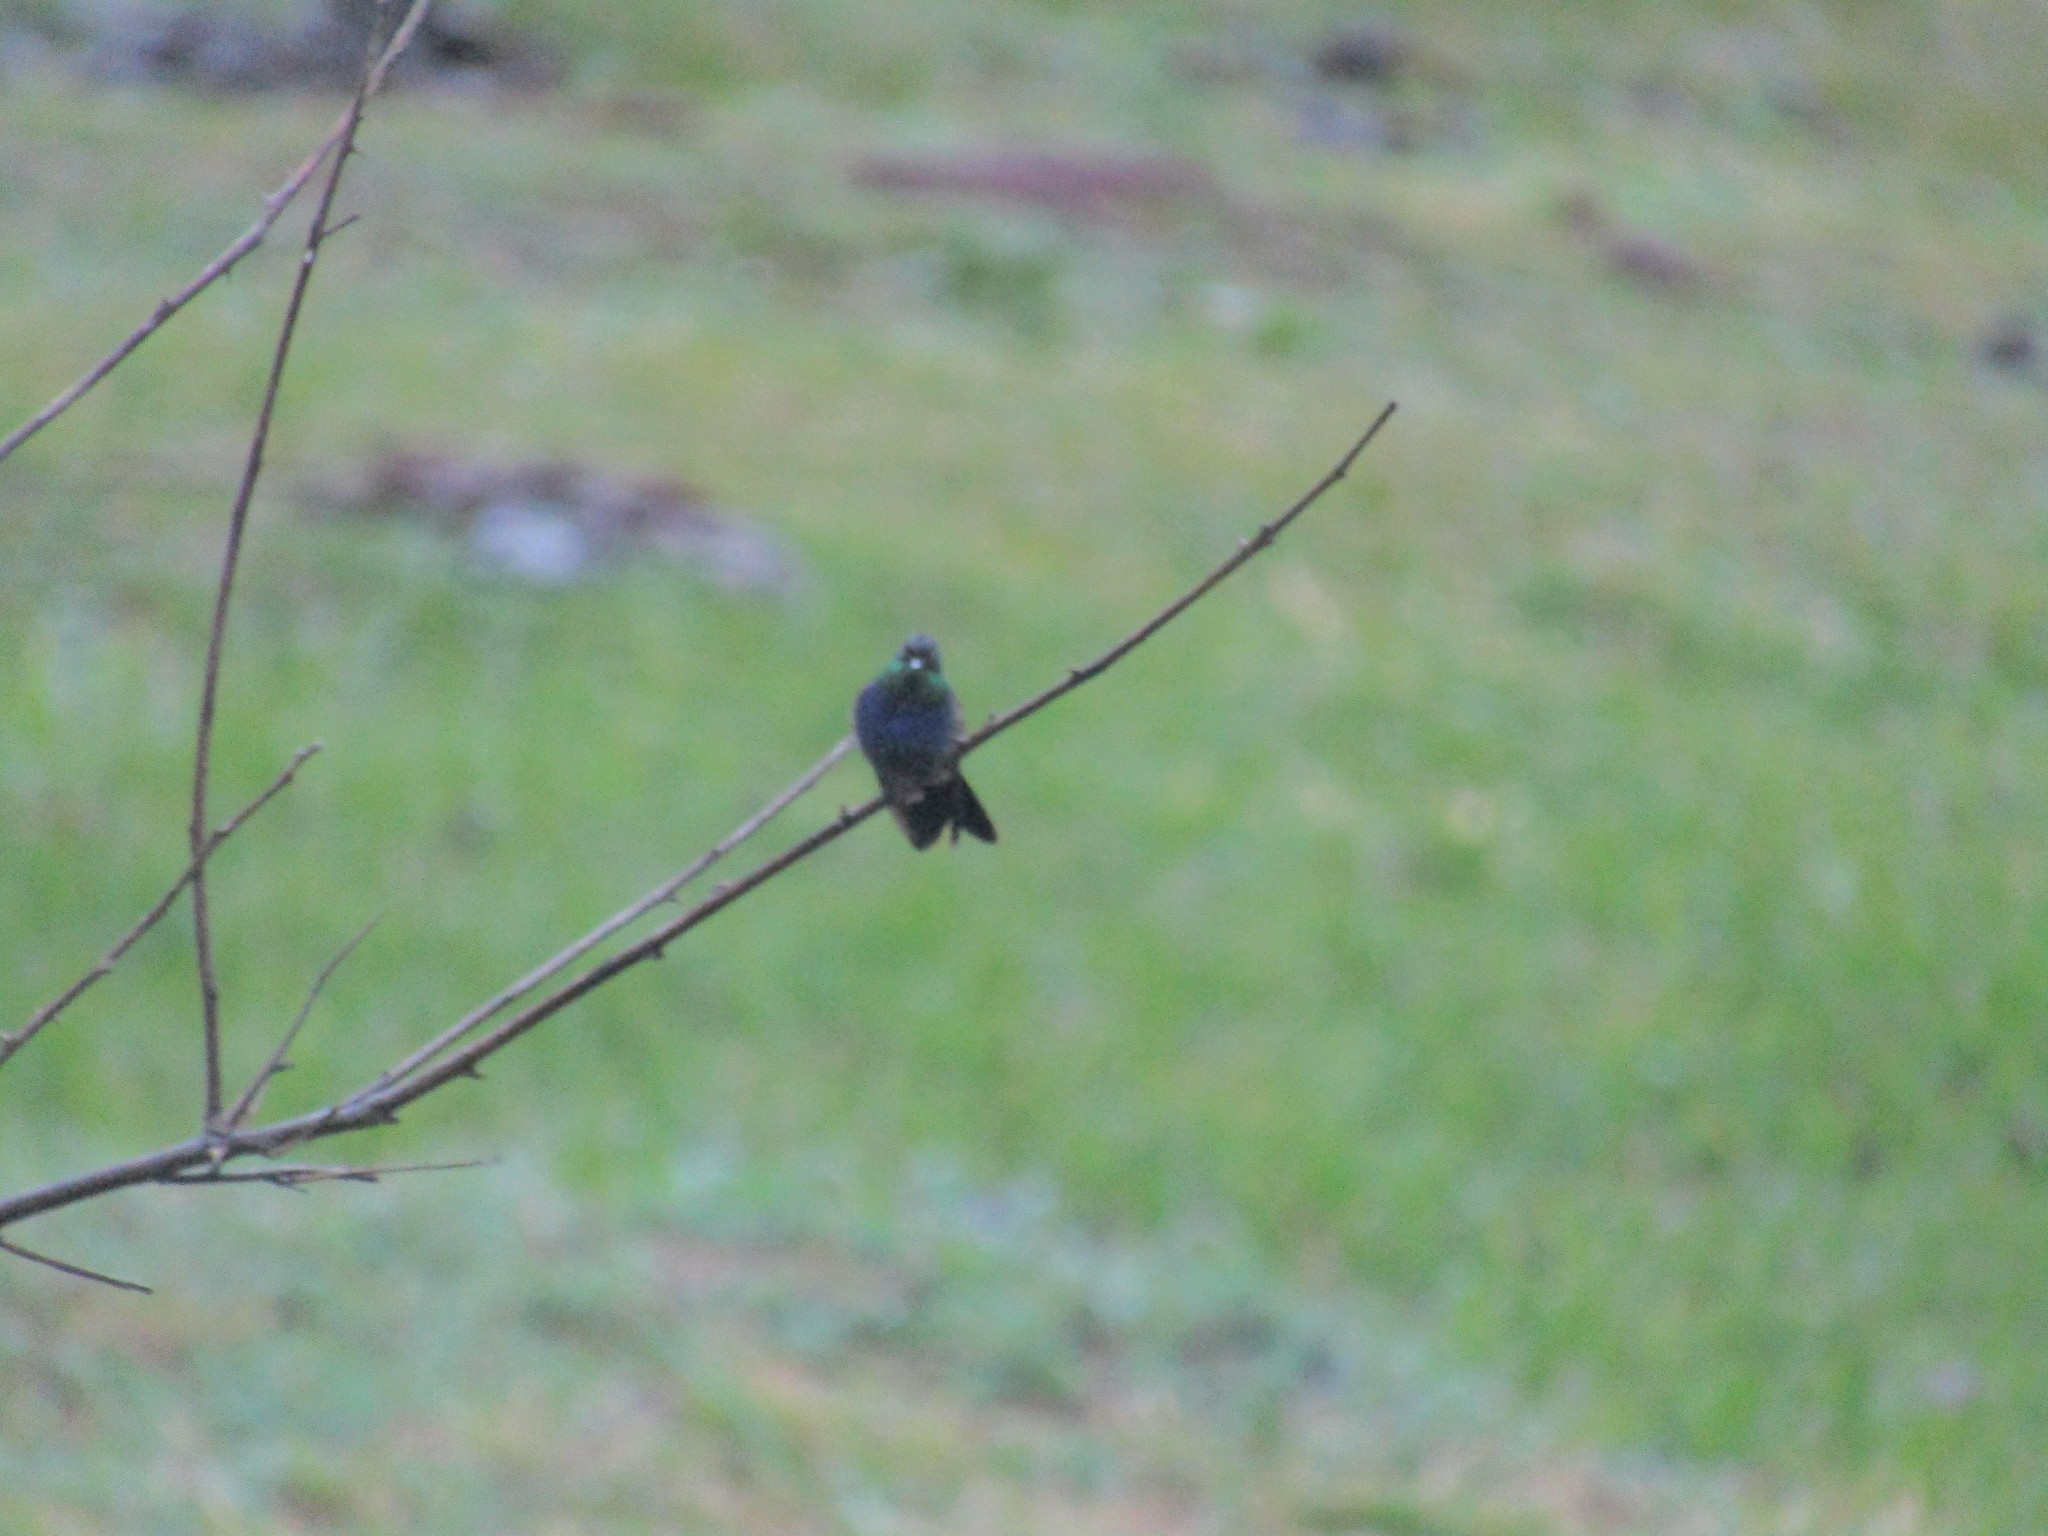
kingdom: Animalia
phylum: Chordata
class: Aves
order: Apodiformes
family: Trochilidae
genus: Thalurania
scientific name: Thalurania furcata
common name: Fork-tailed woodnymph
